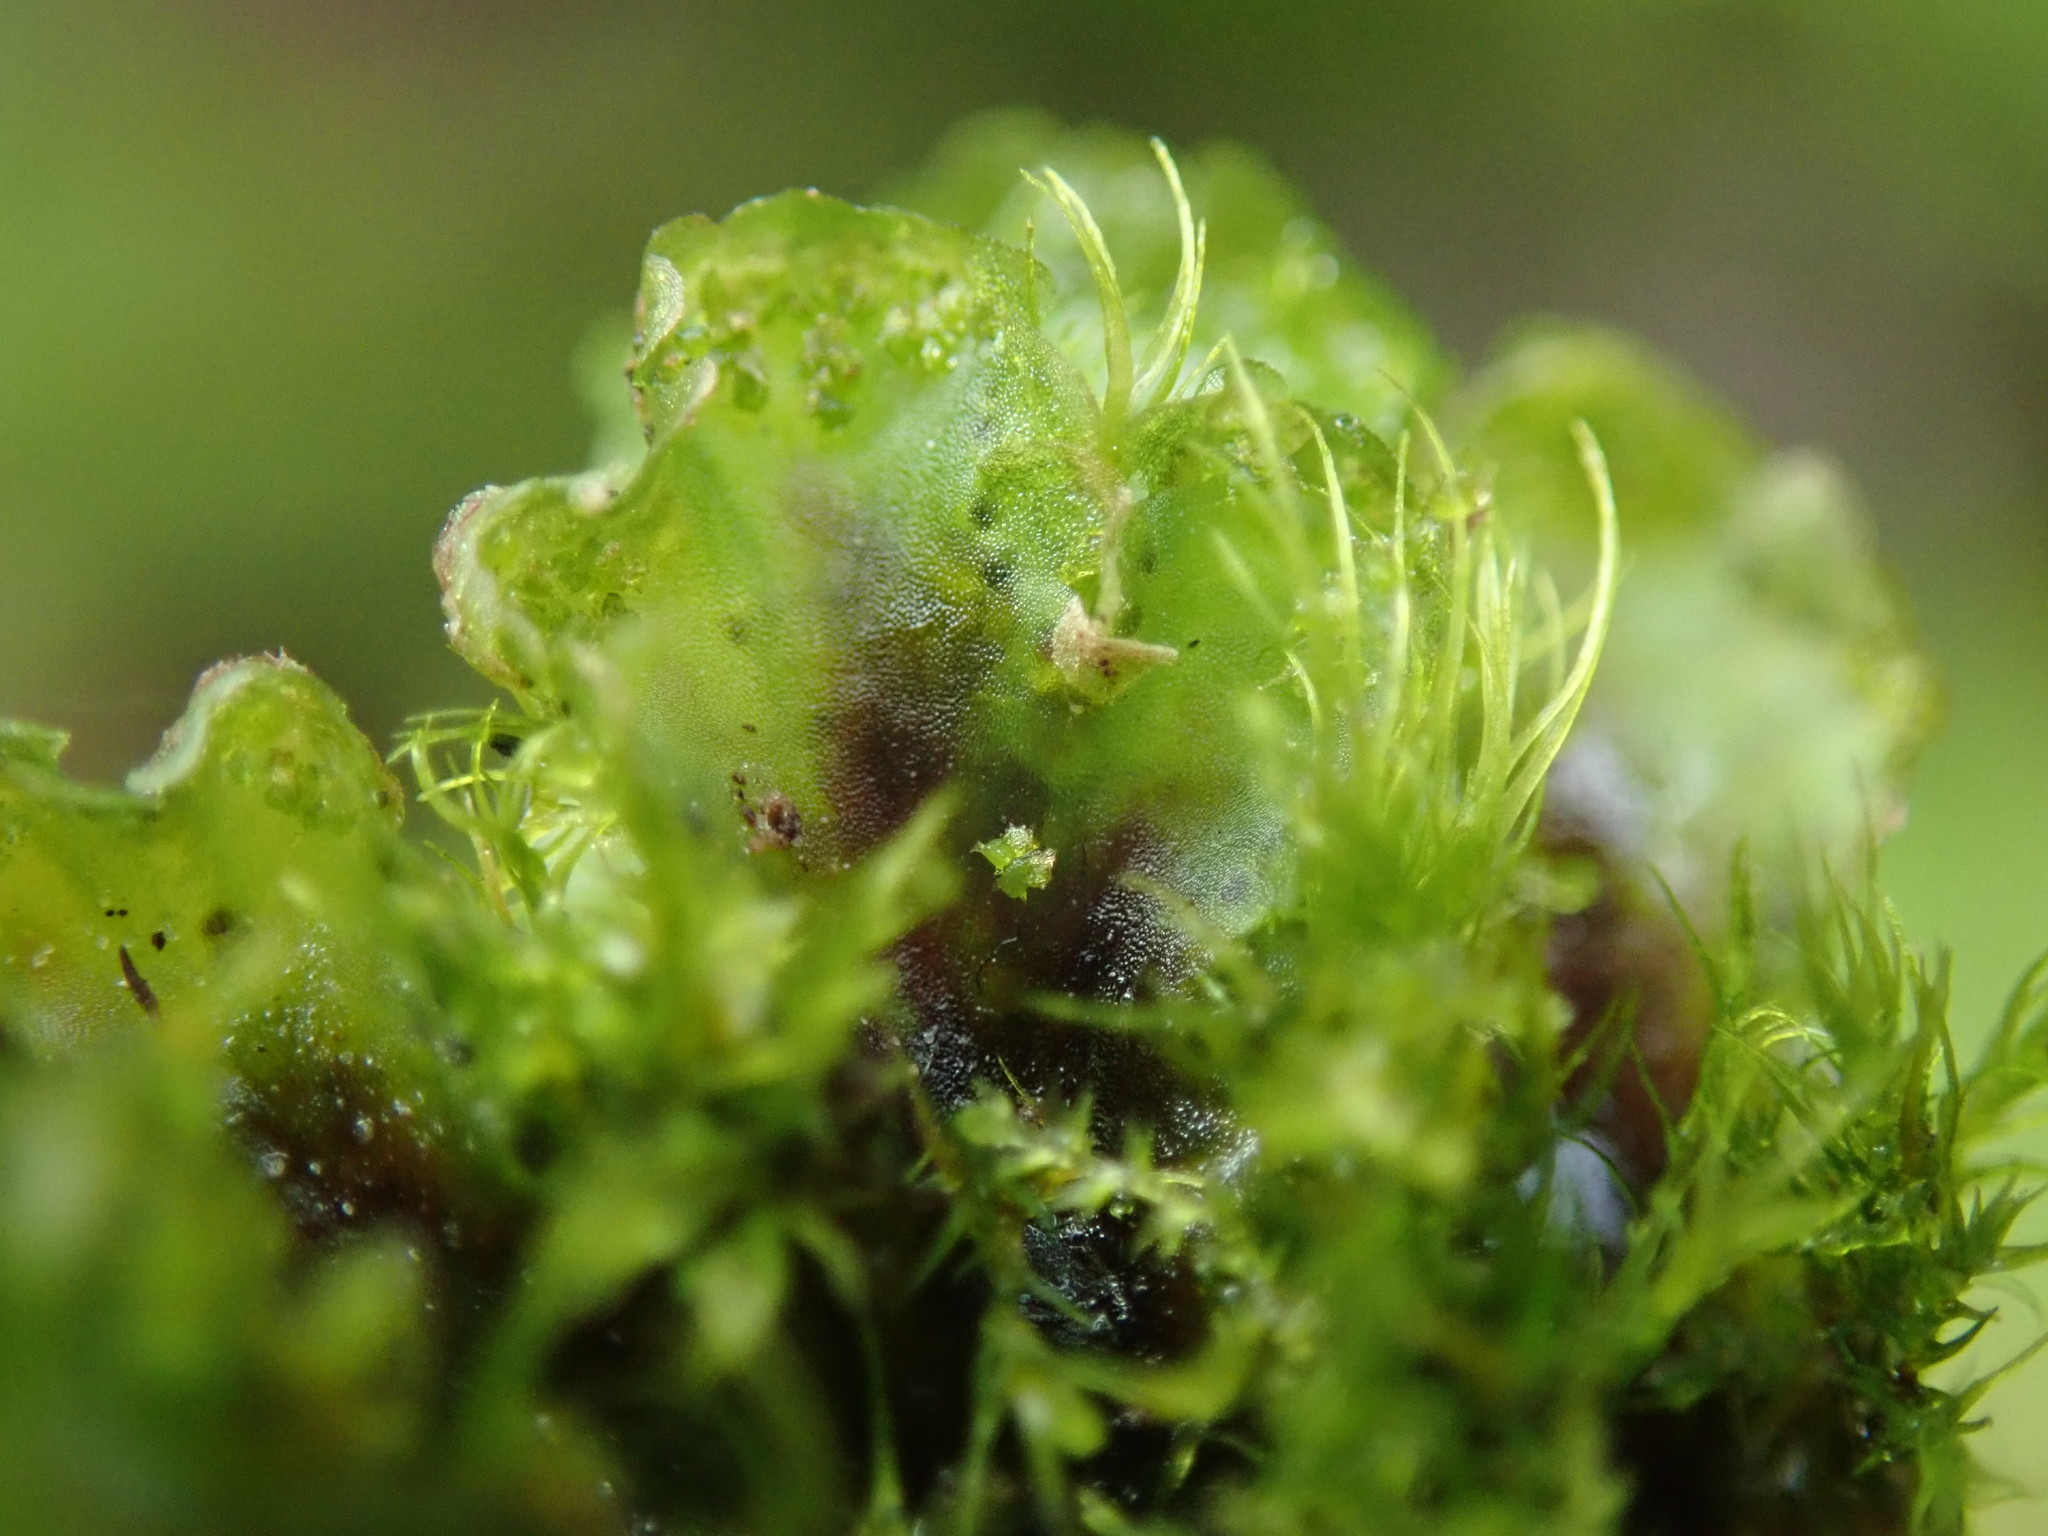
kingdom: Plantae
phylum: Marchantiophyta
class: Marchantiopsida
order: Blasiales
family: Blasiaceae
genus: Blasia
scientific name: Blasia pusilla
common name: Common kettlewort
